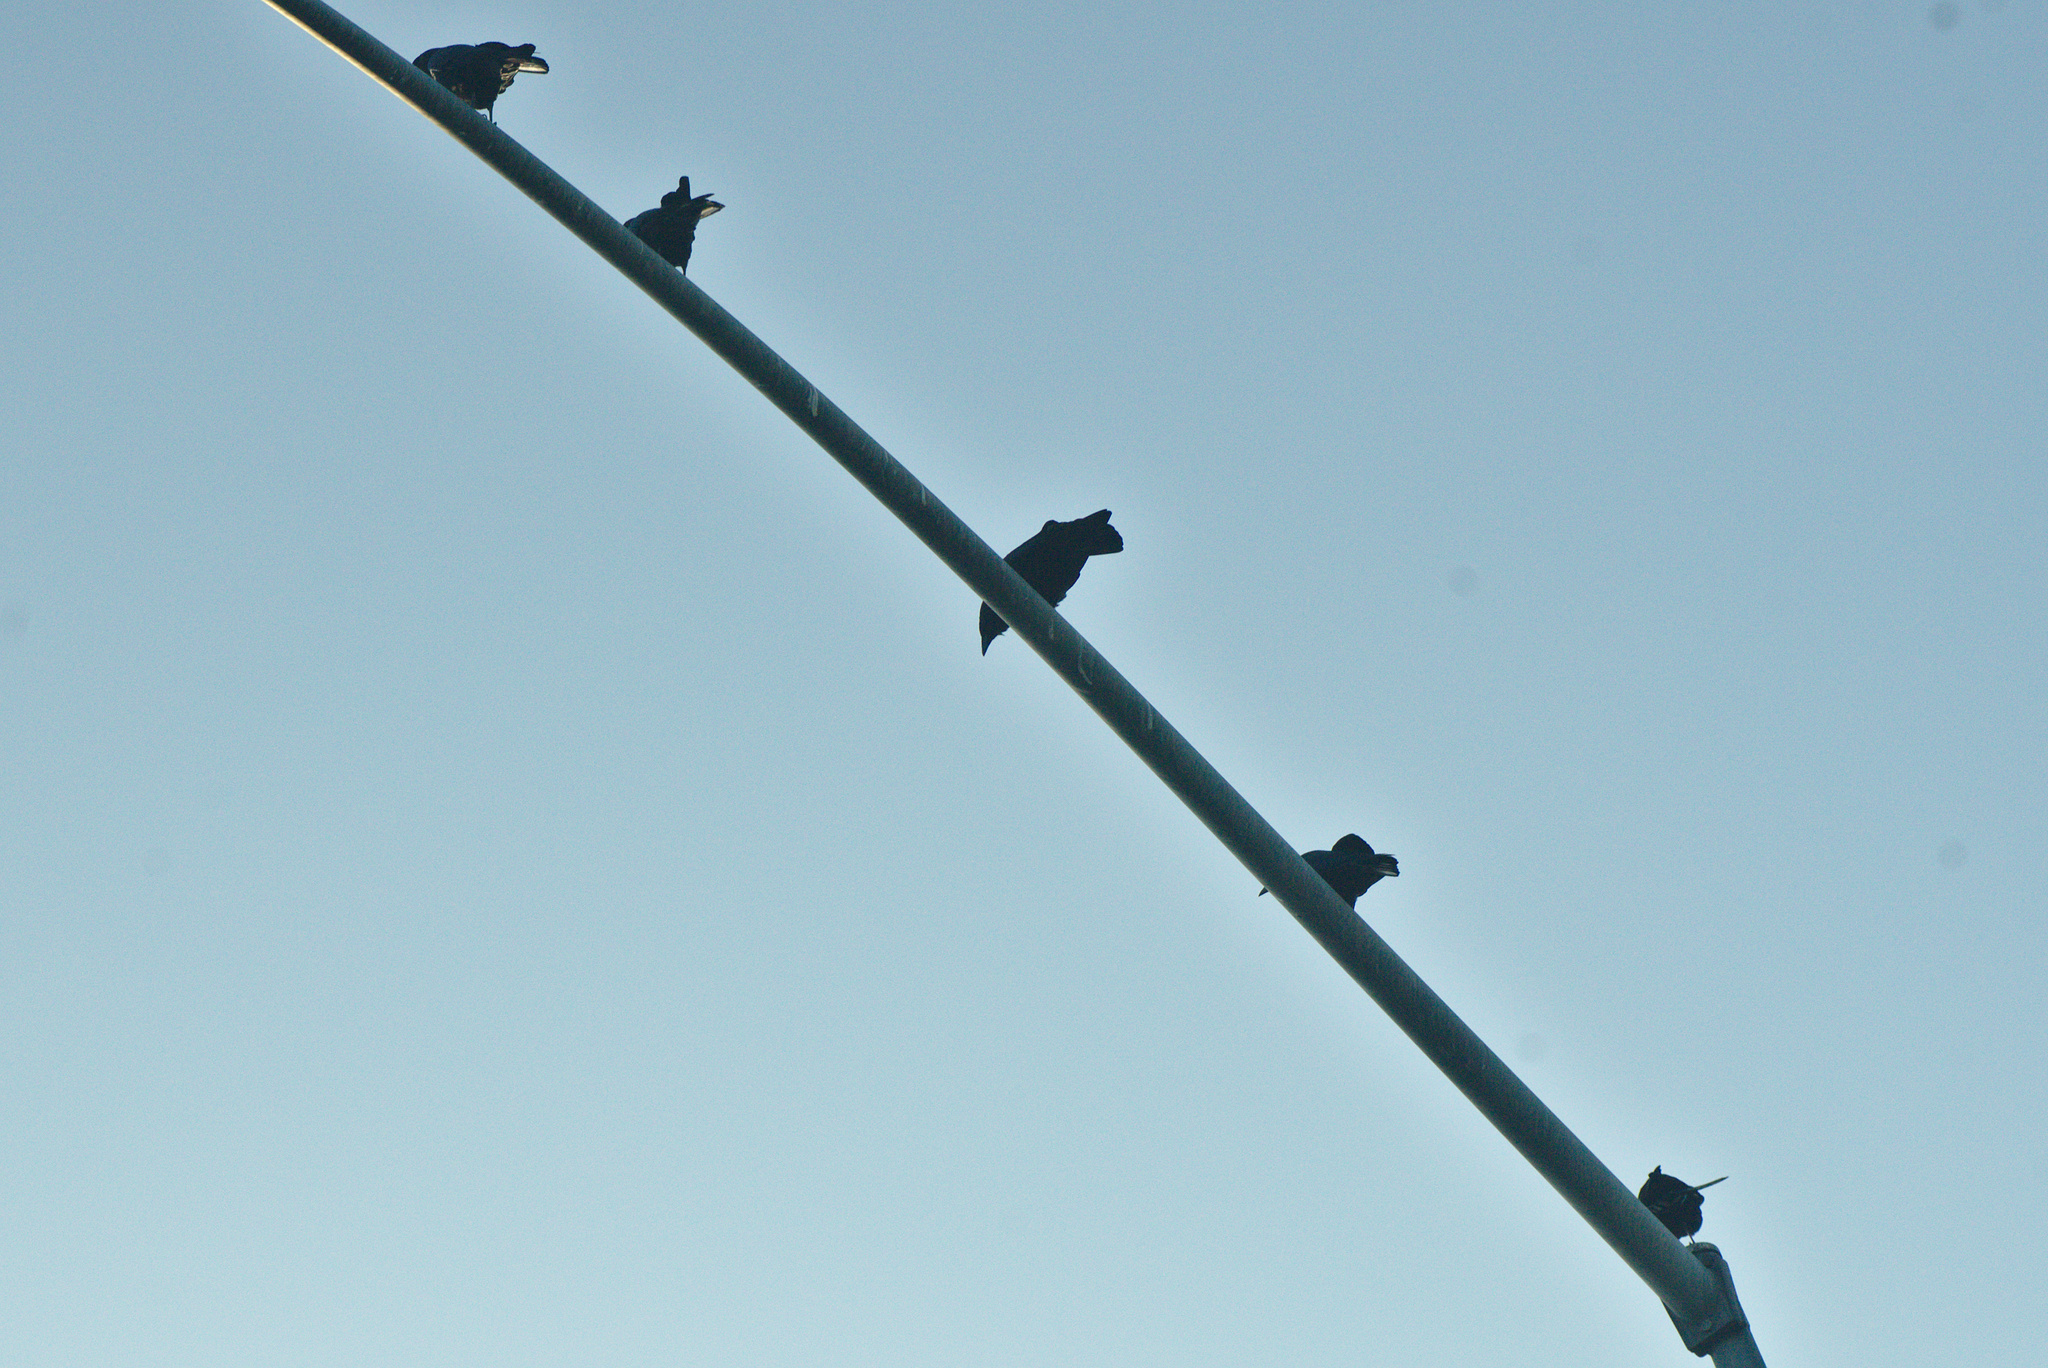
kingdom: Animalia
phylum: Chordata
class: Aves
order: Passeriformes
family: Corvidae
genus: Corvus
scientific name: Corvus brachyrhynchos
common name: American crow
